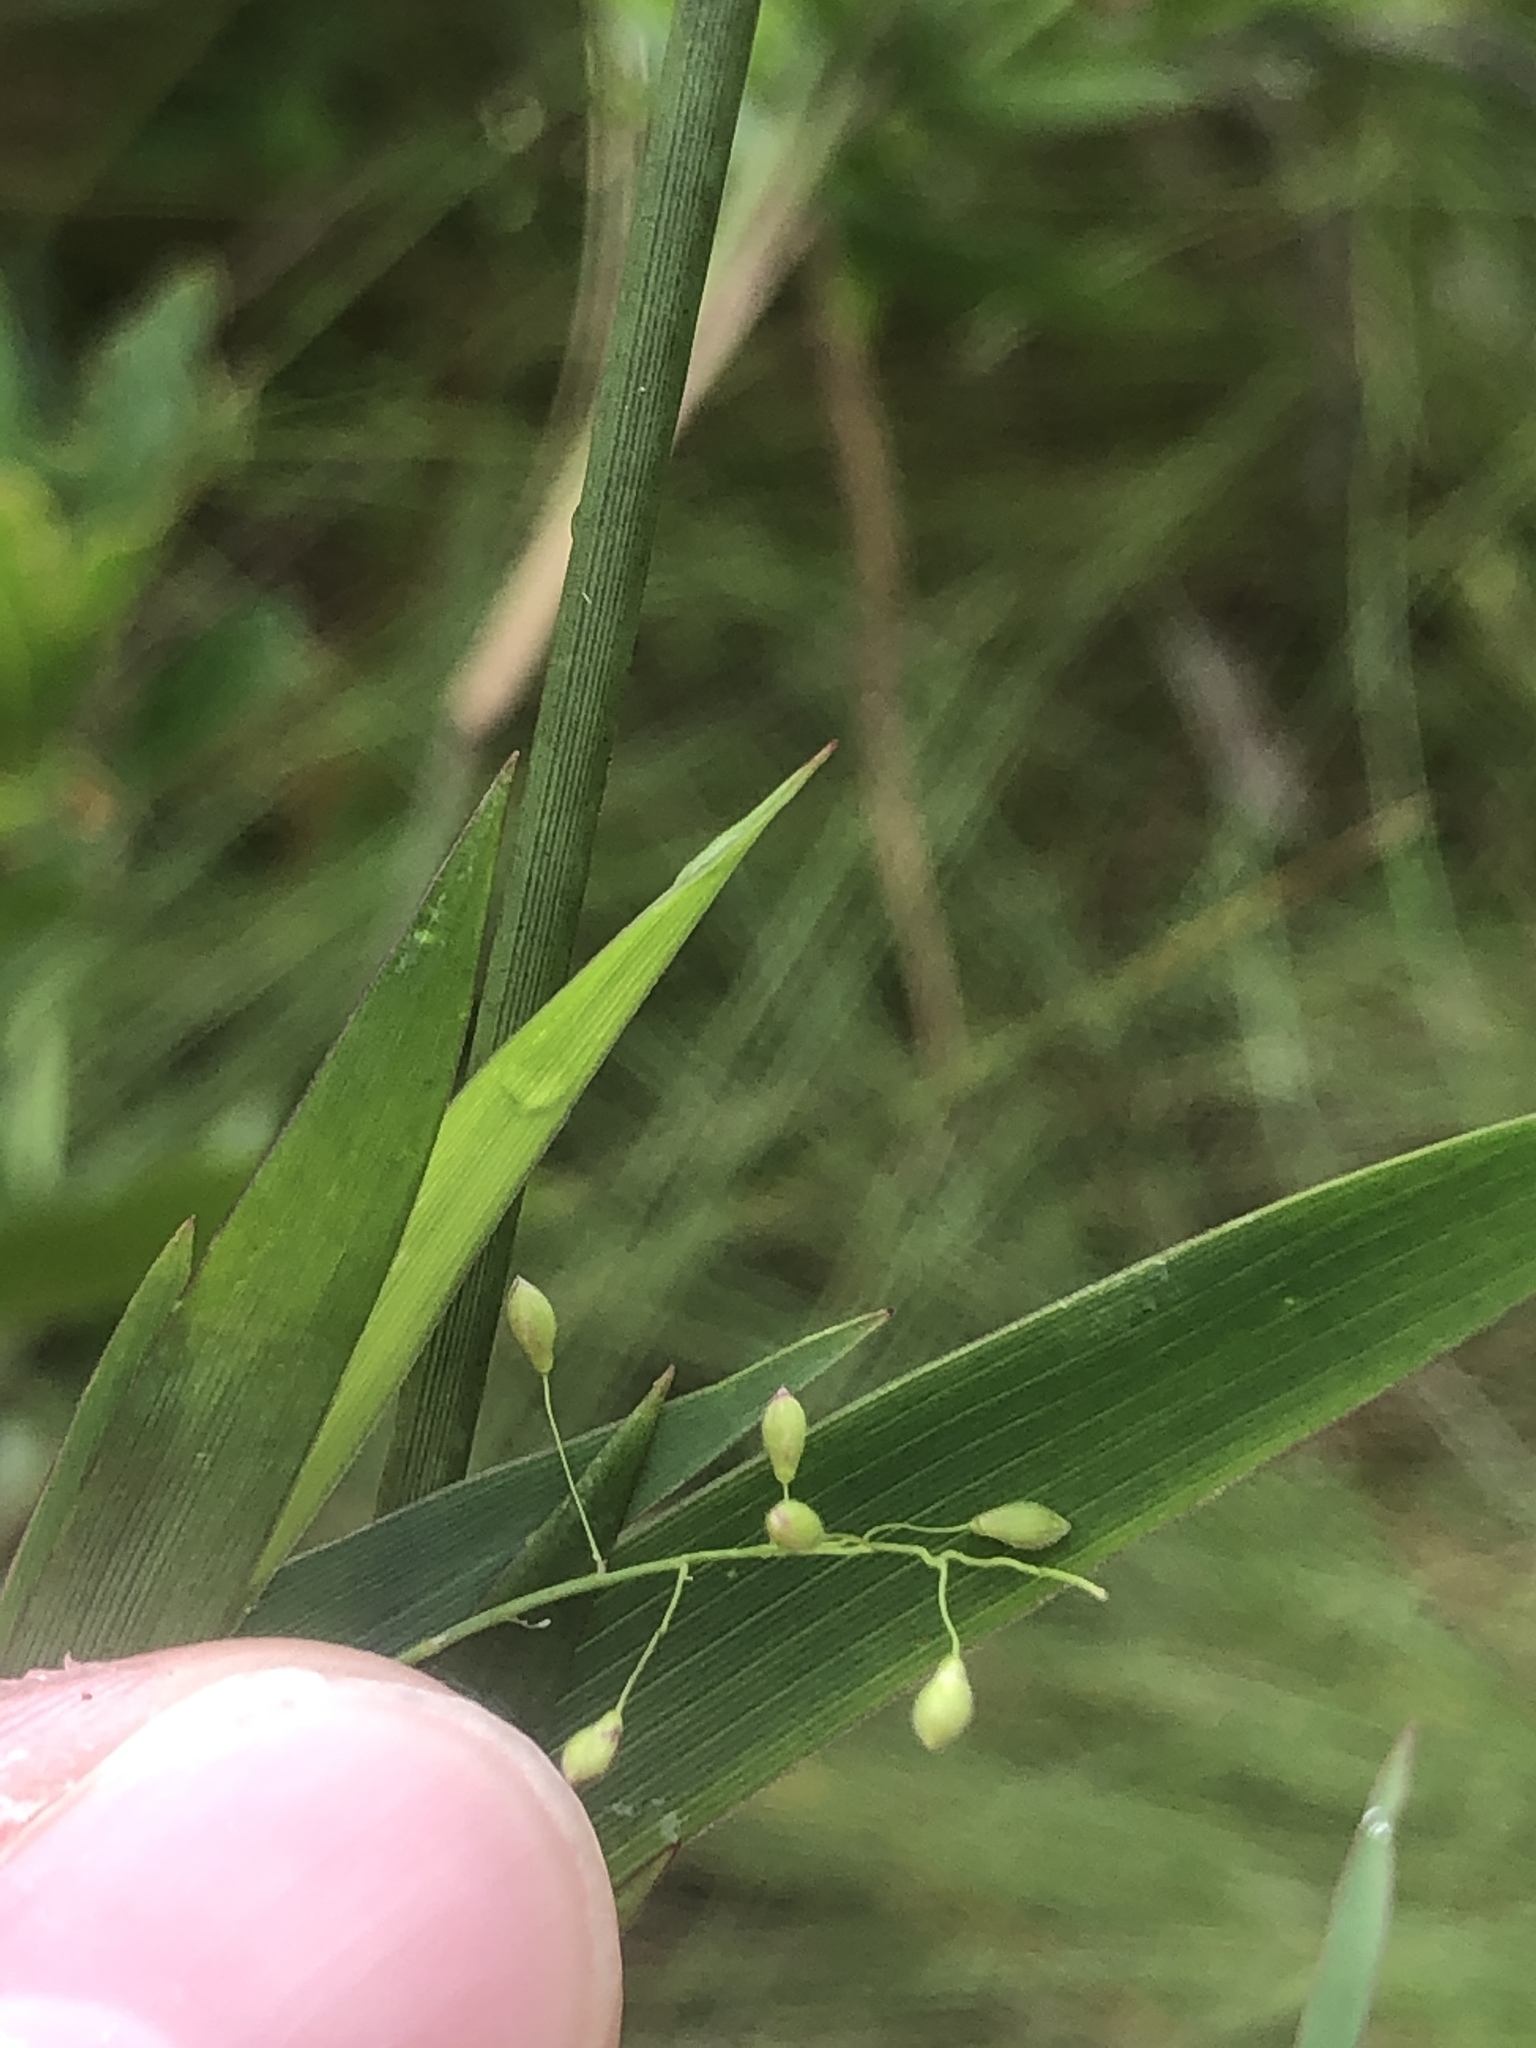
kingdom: Plantae
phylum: Tracheophyta
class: Liliopsida
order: Poales
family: Poaceae
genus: Dichanthelium
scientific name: Dichanthelium mattamuskeetense
